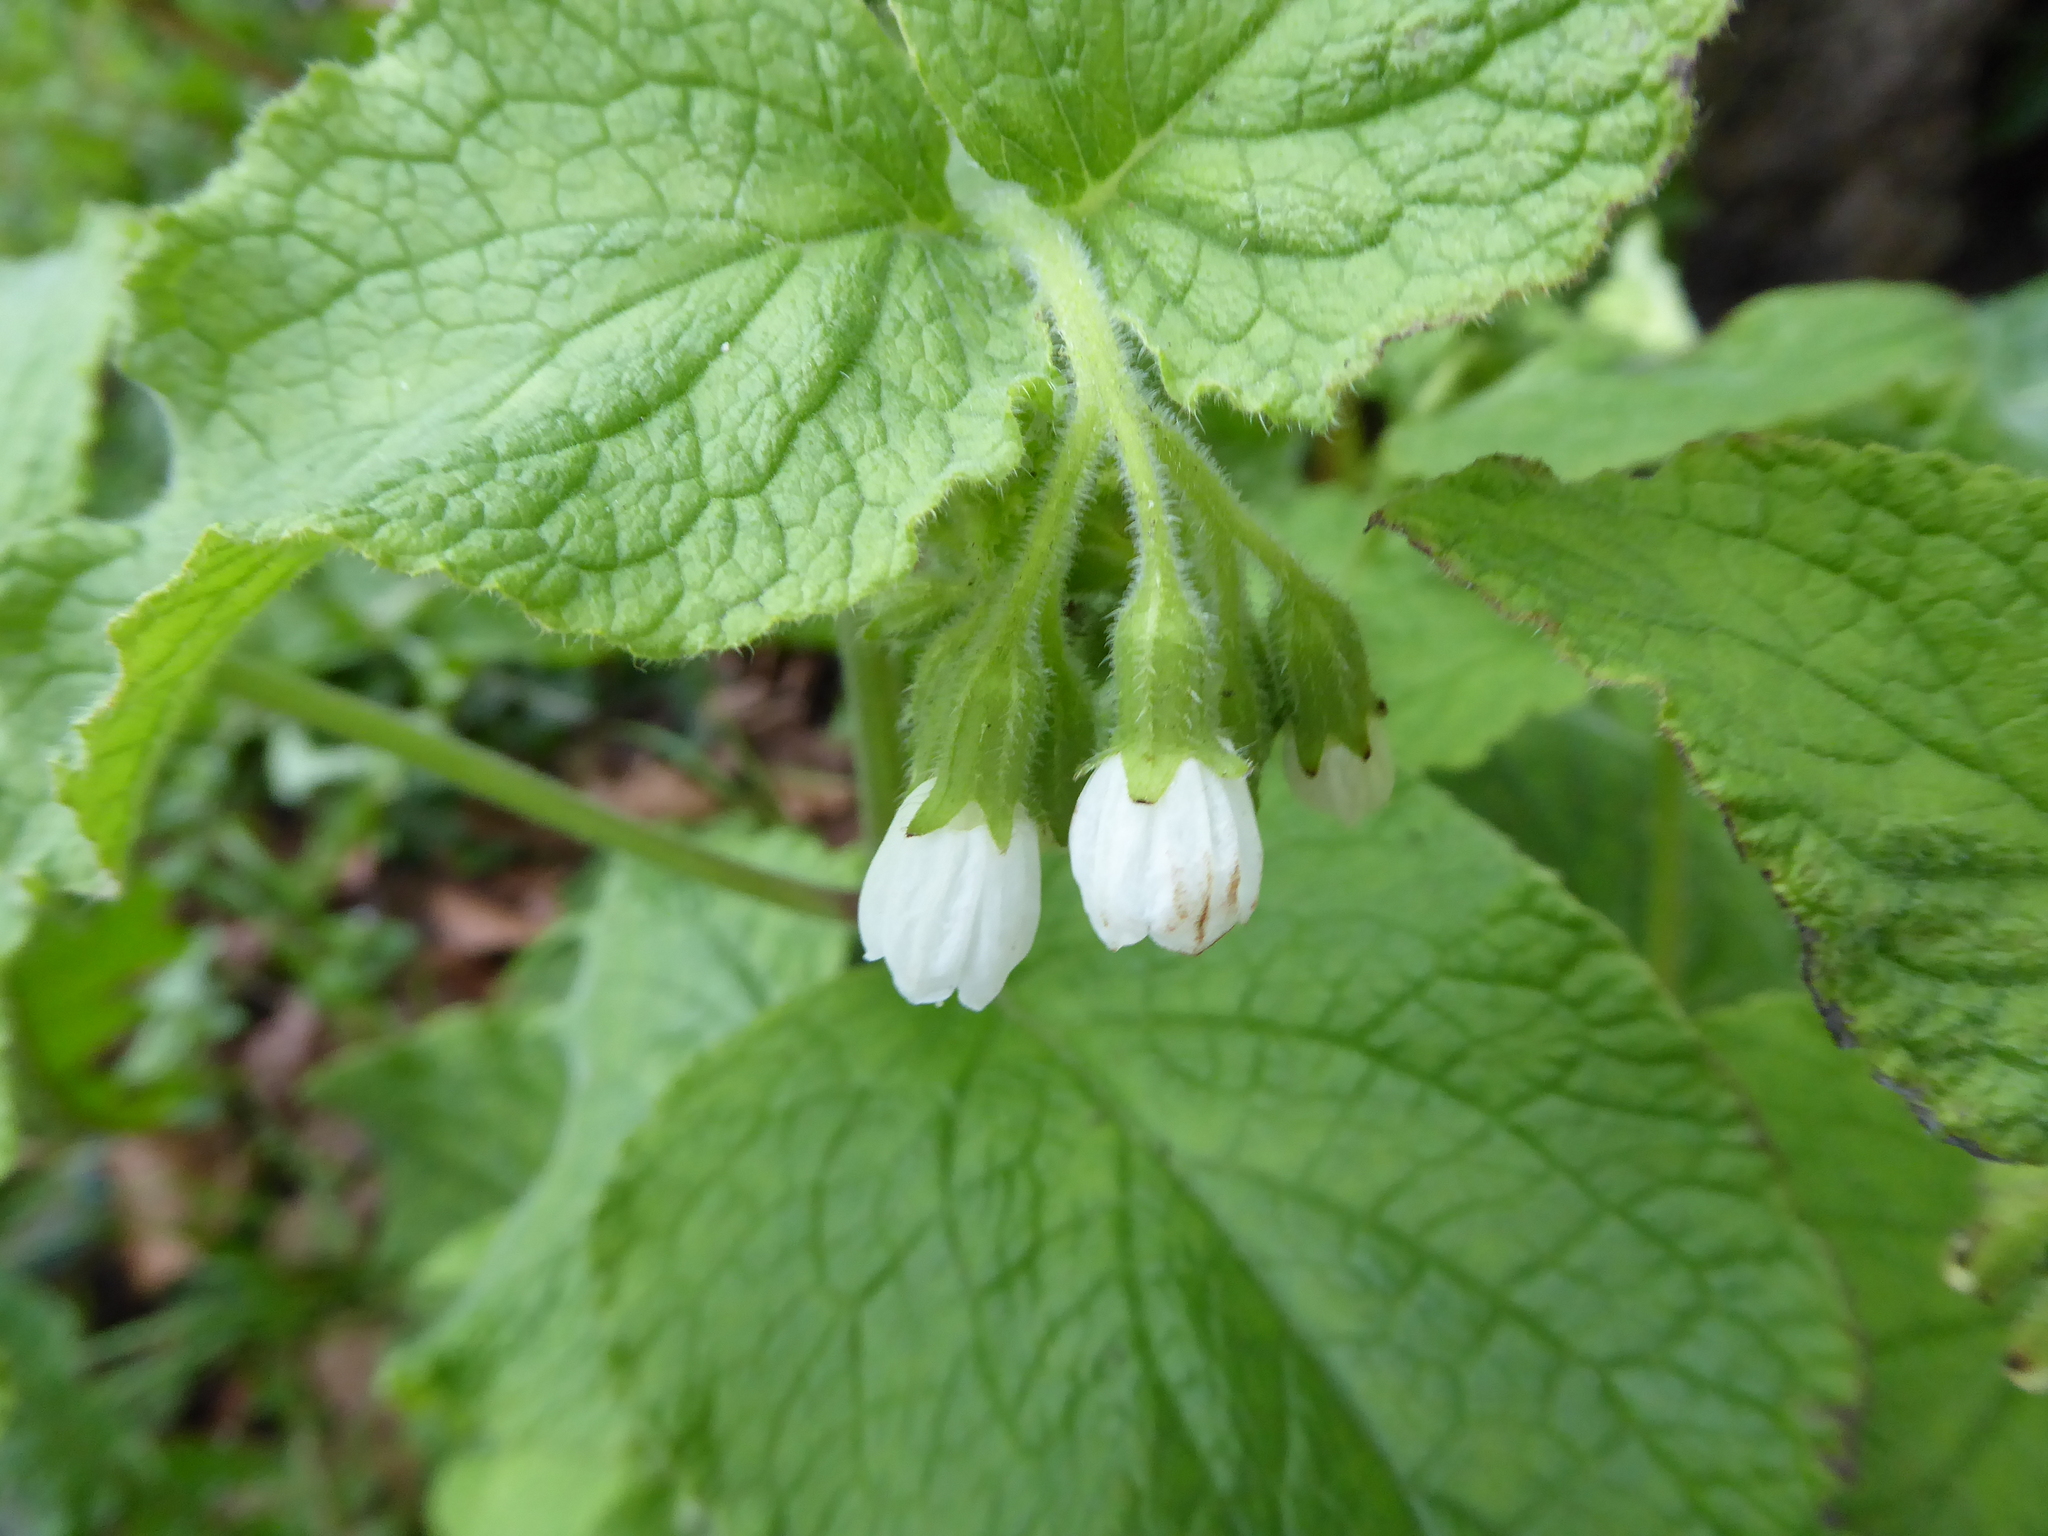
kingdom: Plantae
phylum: Tracheophyta
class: Magnoliopsida
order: Boraginales
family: Boraginaceae
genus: Symphytum
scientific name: Symphytum orientale
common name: White comfrey
